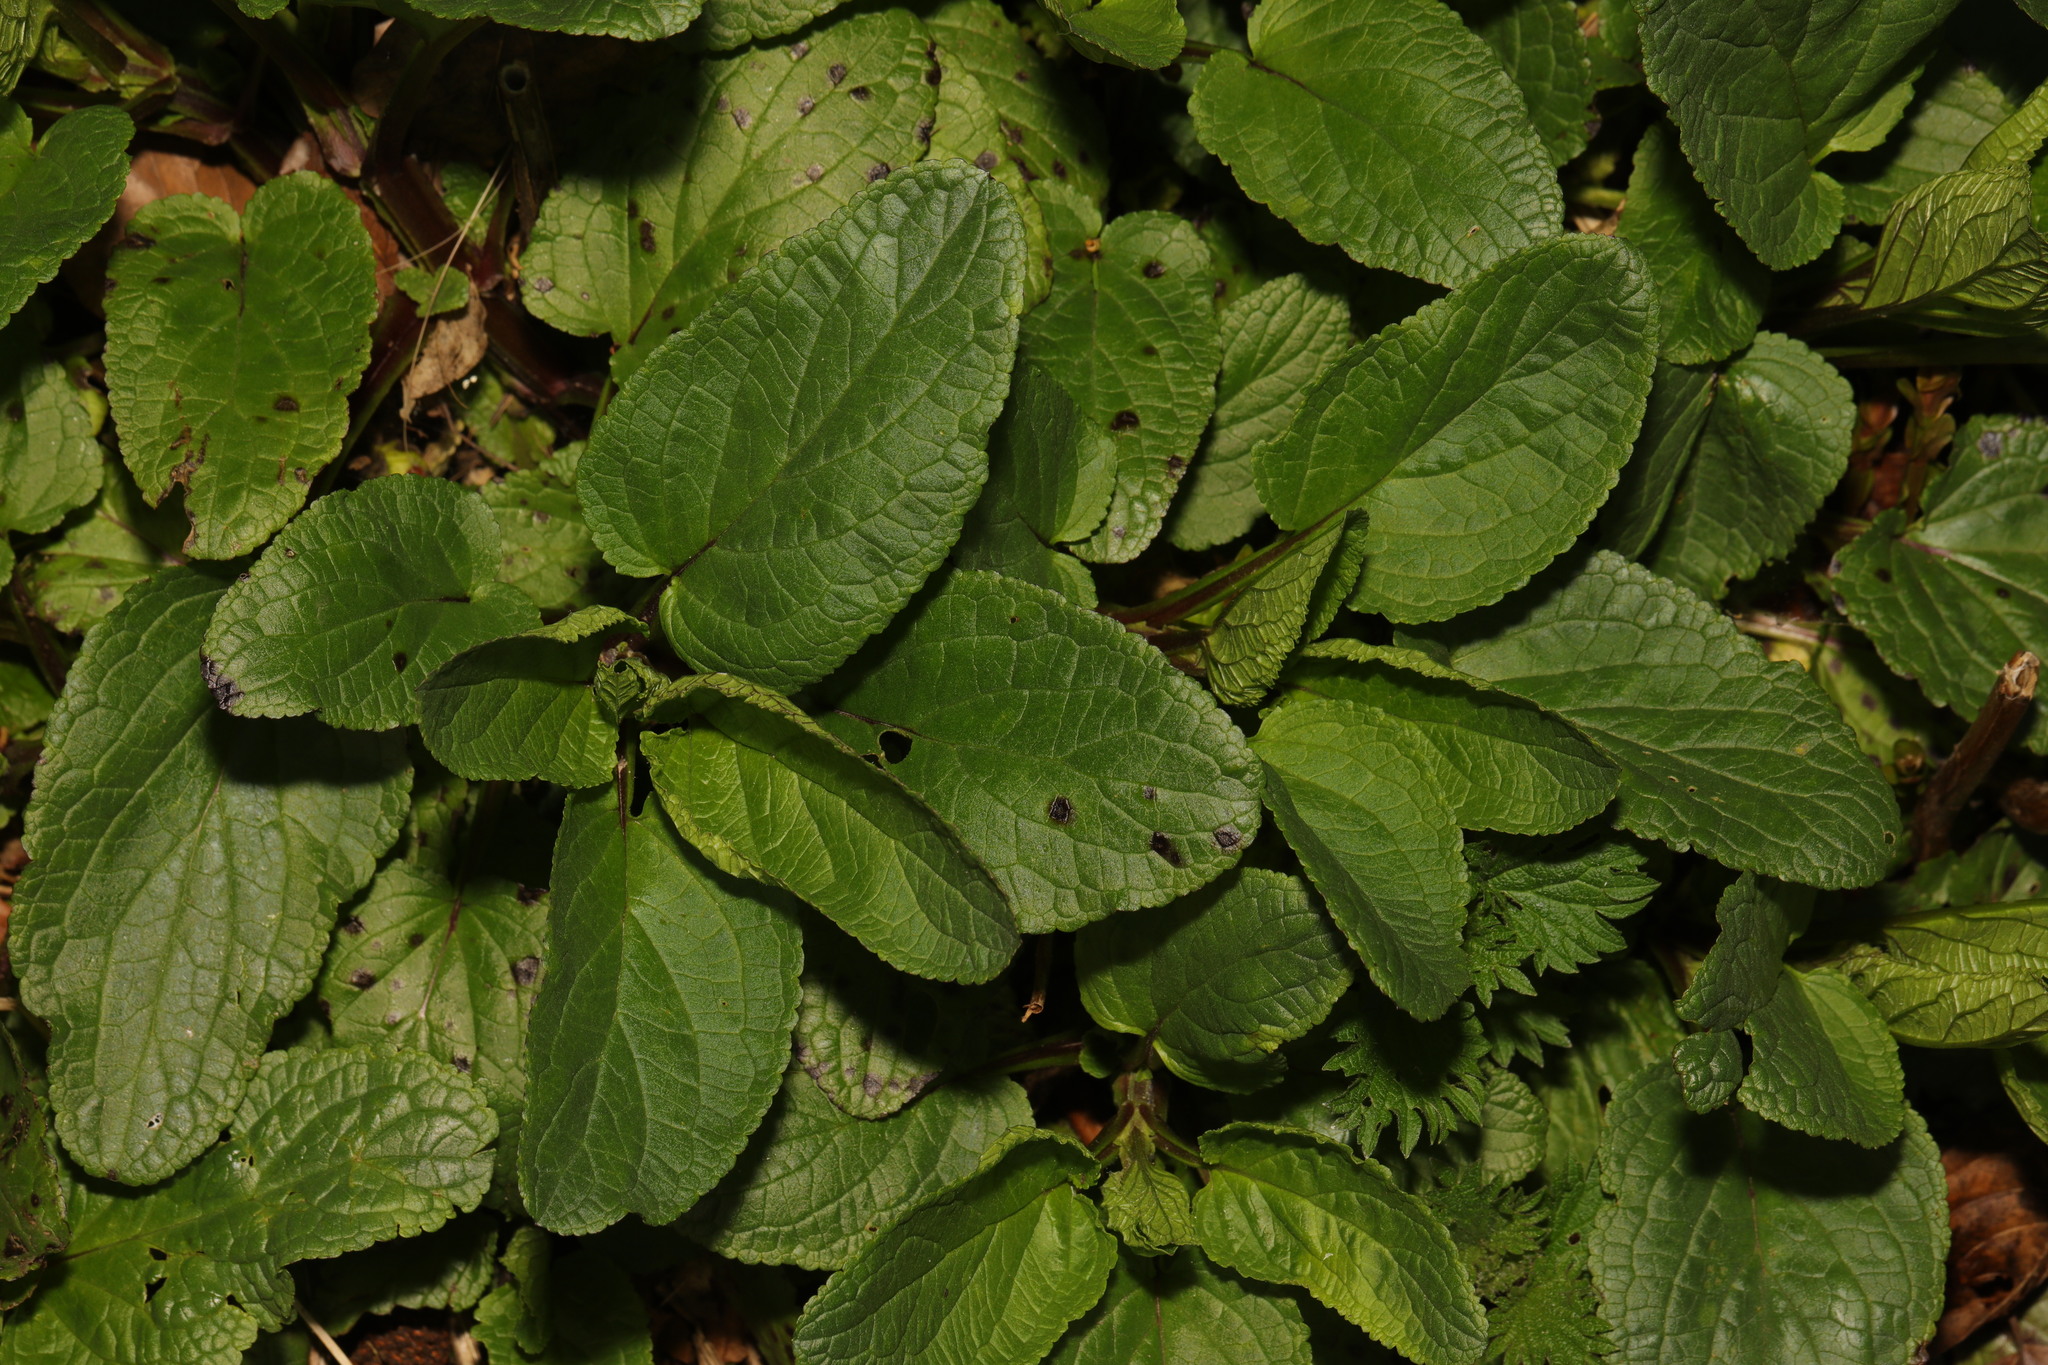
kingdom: Plantae
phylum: Tracheophyta
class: Magnoliopsida
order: Lamiales
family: Scrophulariaceae
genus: Scrophularia
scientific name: Scrophularia auriculata
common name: Water betony
